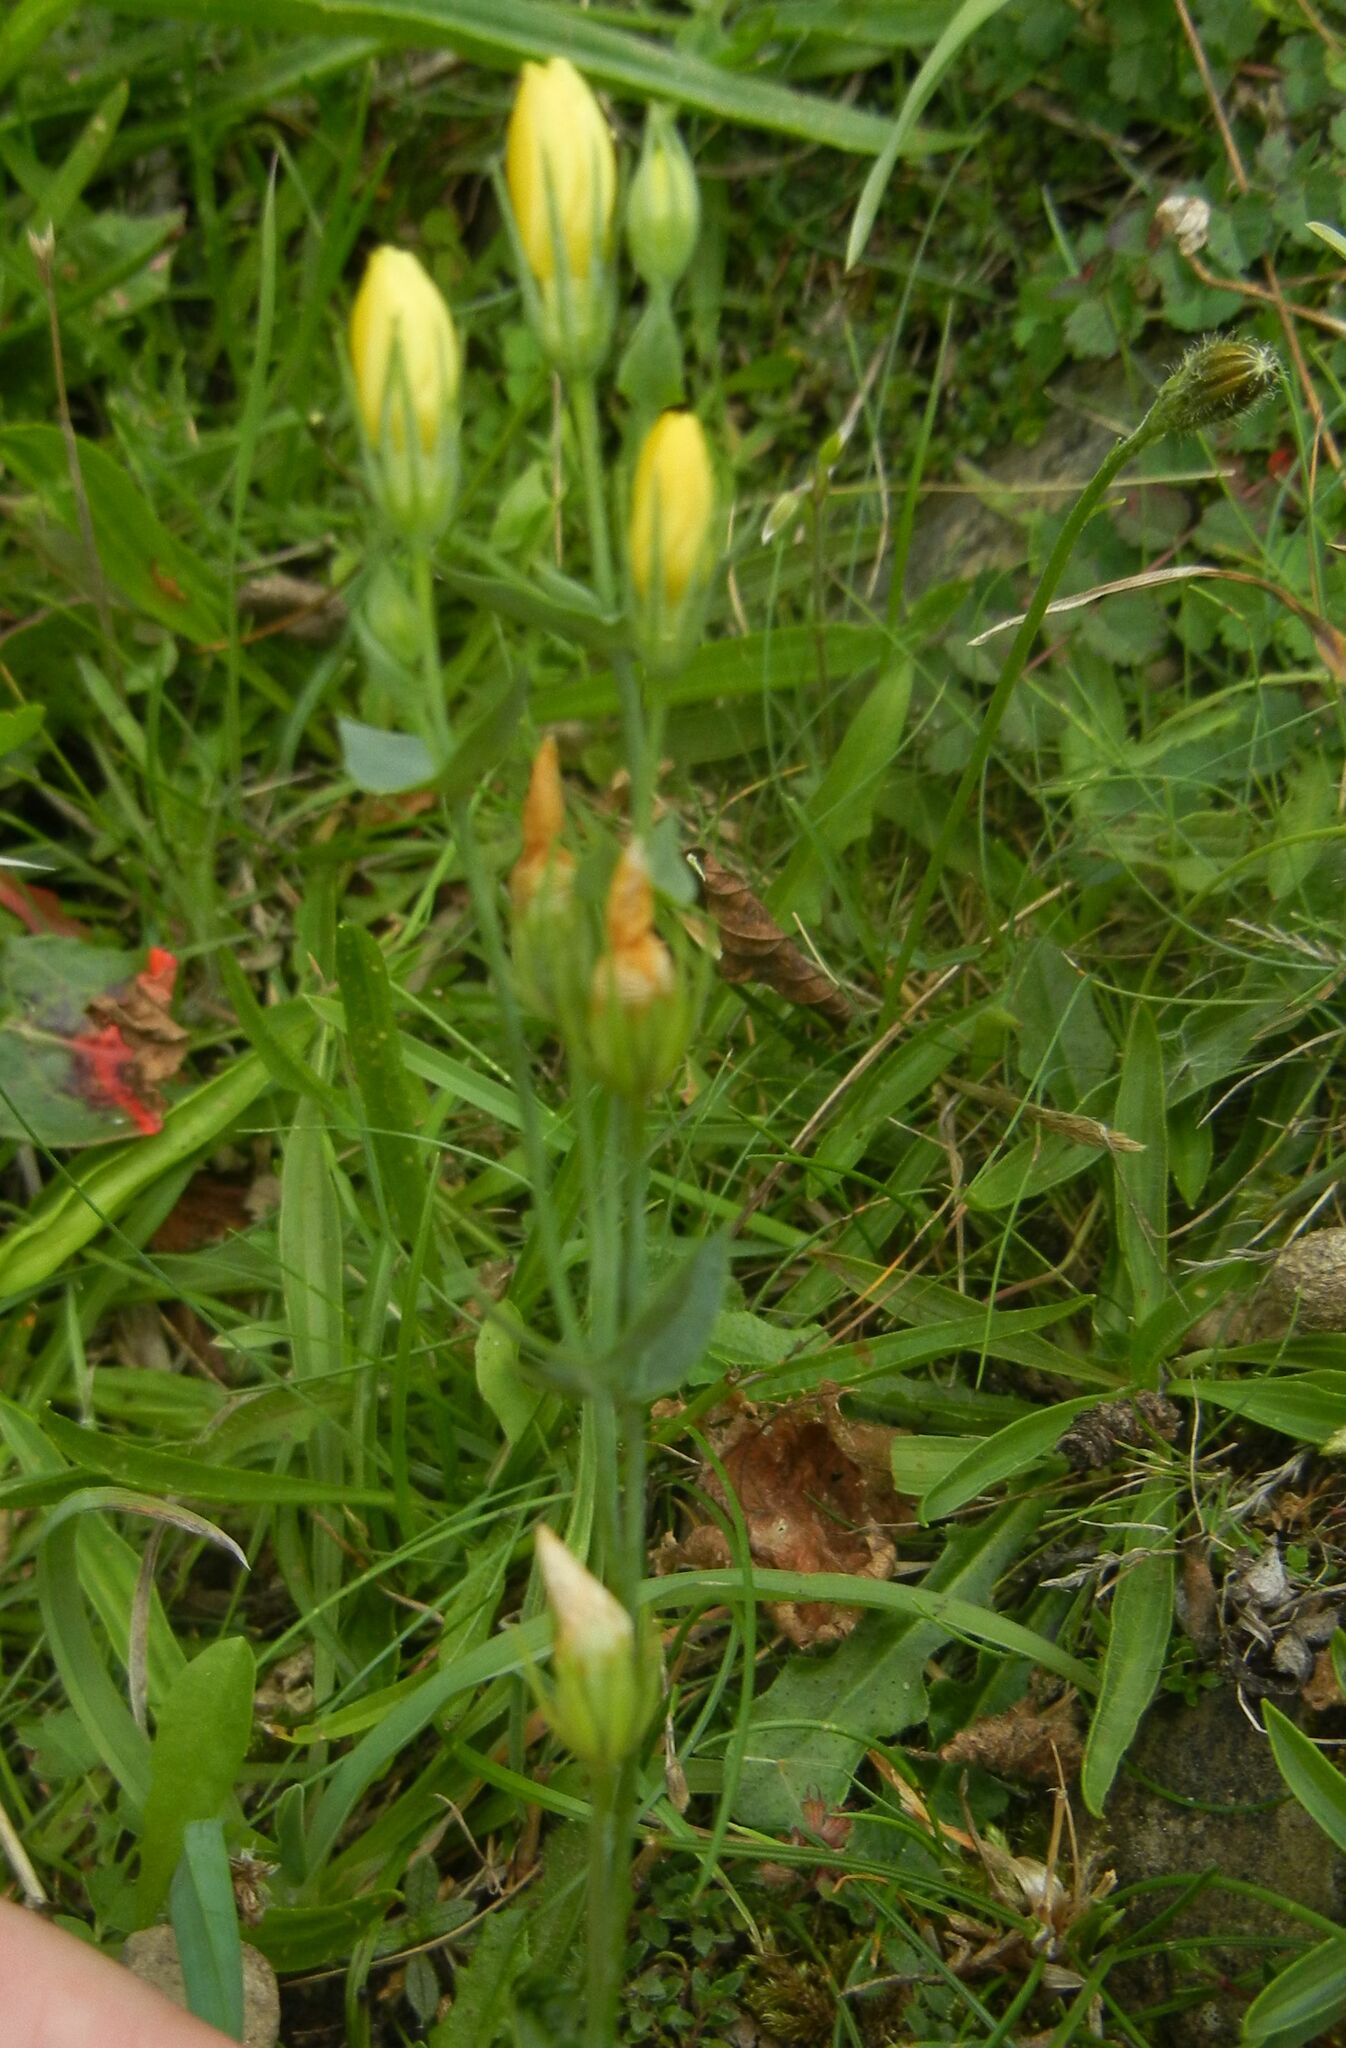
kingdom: Plantae
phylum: Tracheophyta
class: Magnoliopsida
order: Gentianales
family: Gentianaceae
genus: Blackstonia
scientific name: Blackstonia perfoliata
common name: Yellow-wort
